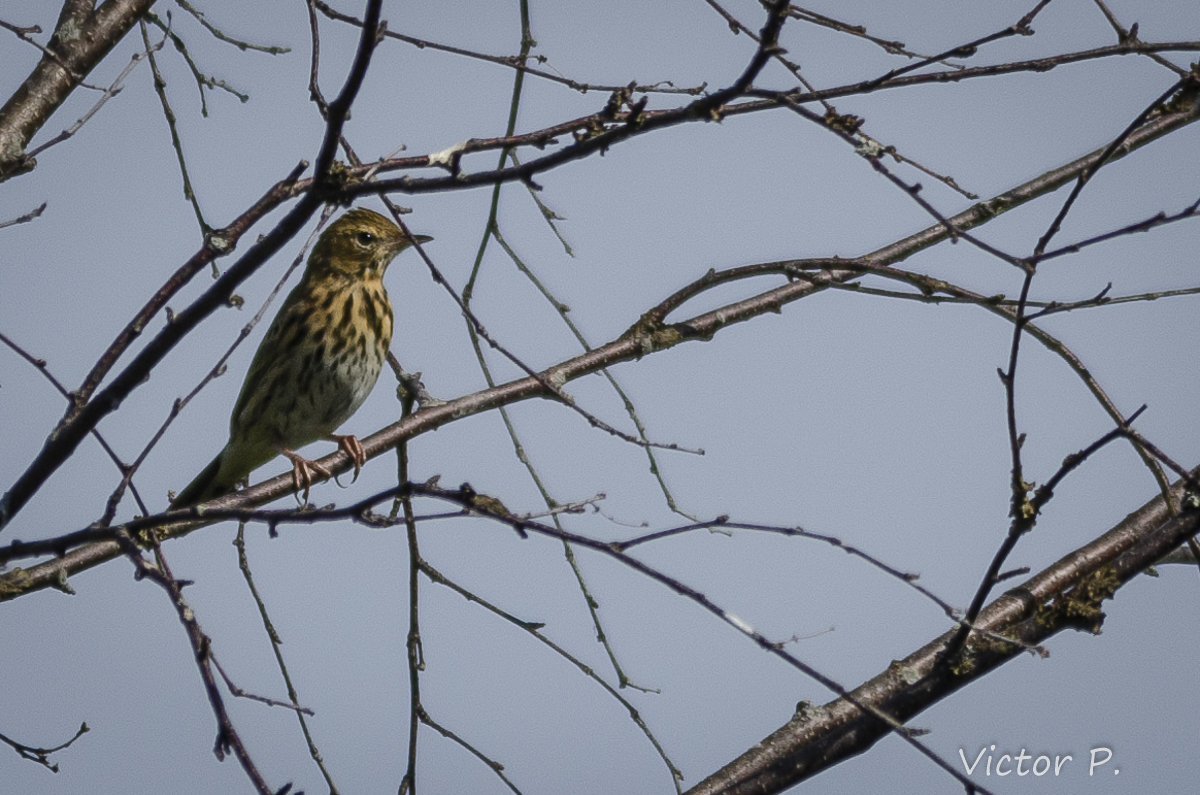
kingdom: Animalia
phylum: Chordata
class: Aves
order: Passeriformes
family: Motacillidae
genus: Anthus
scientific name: Anthus pratensis
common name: Meadow pipit
